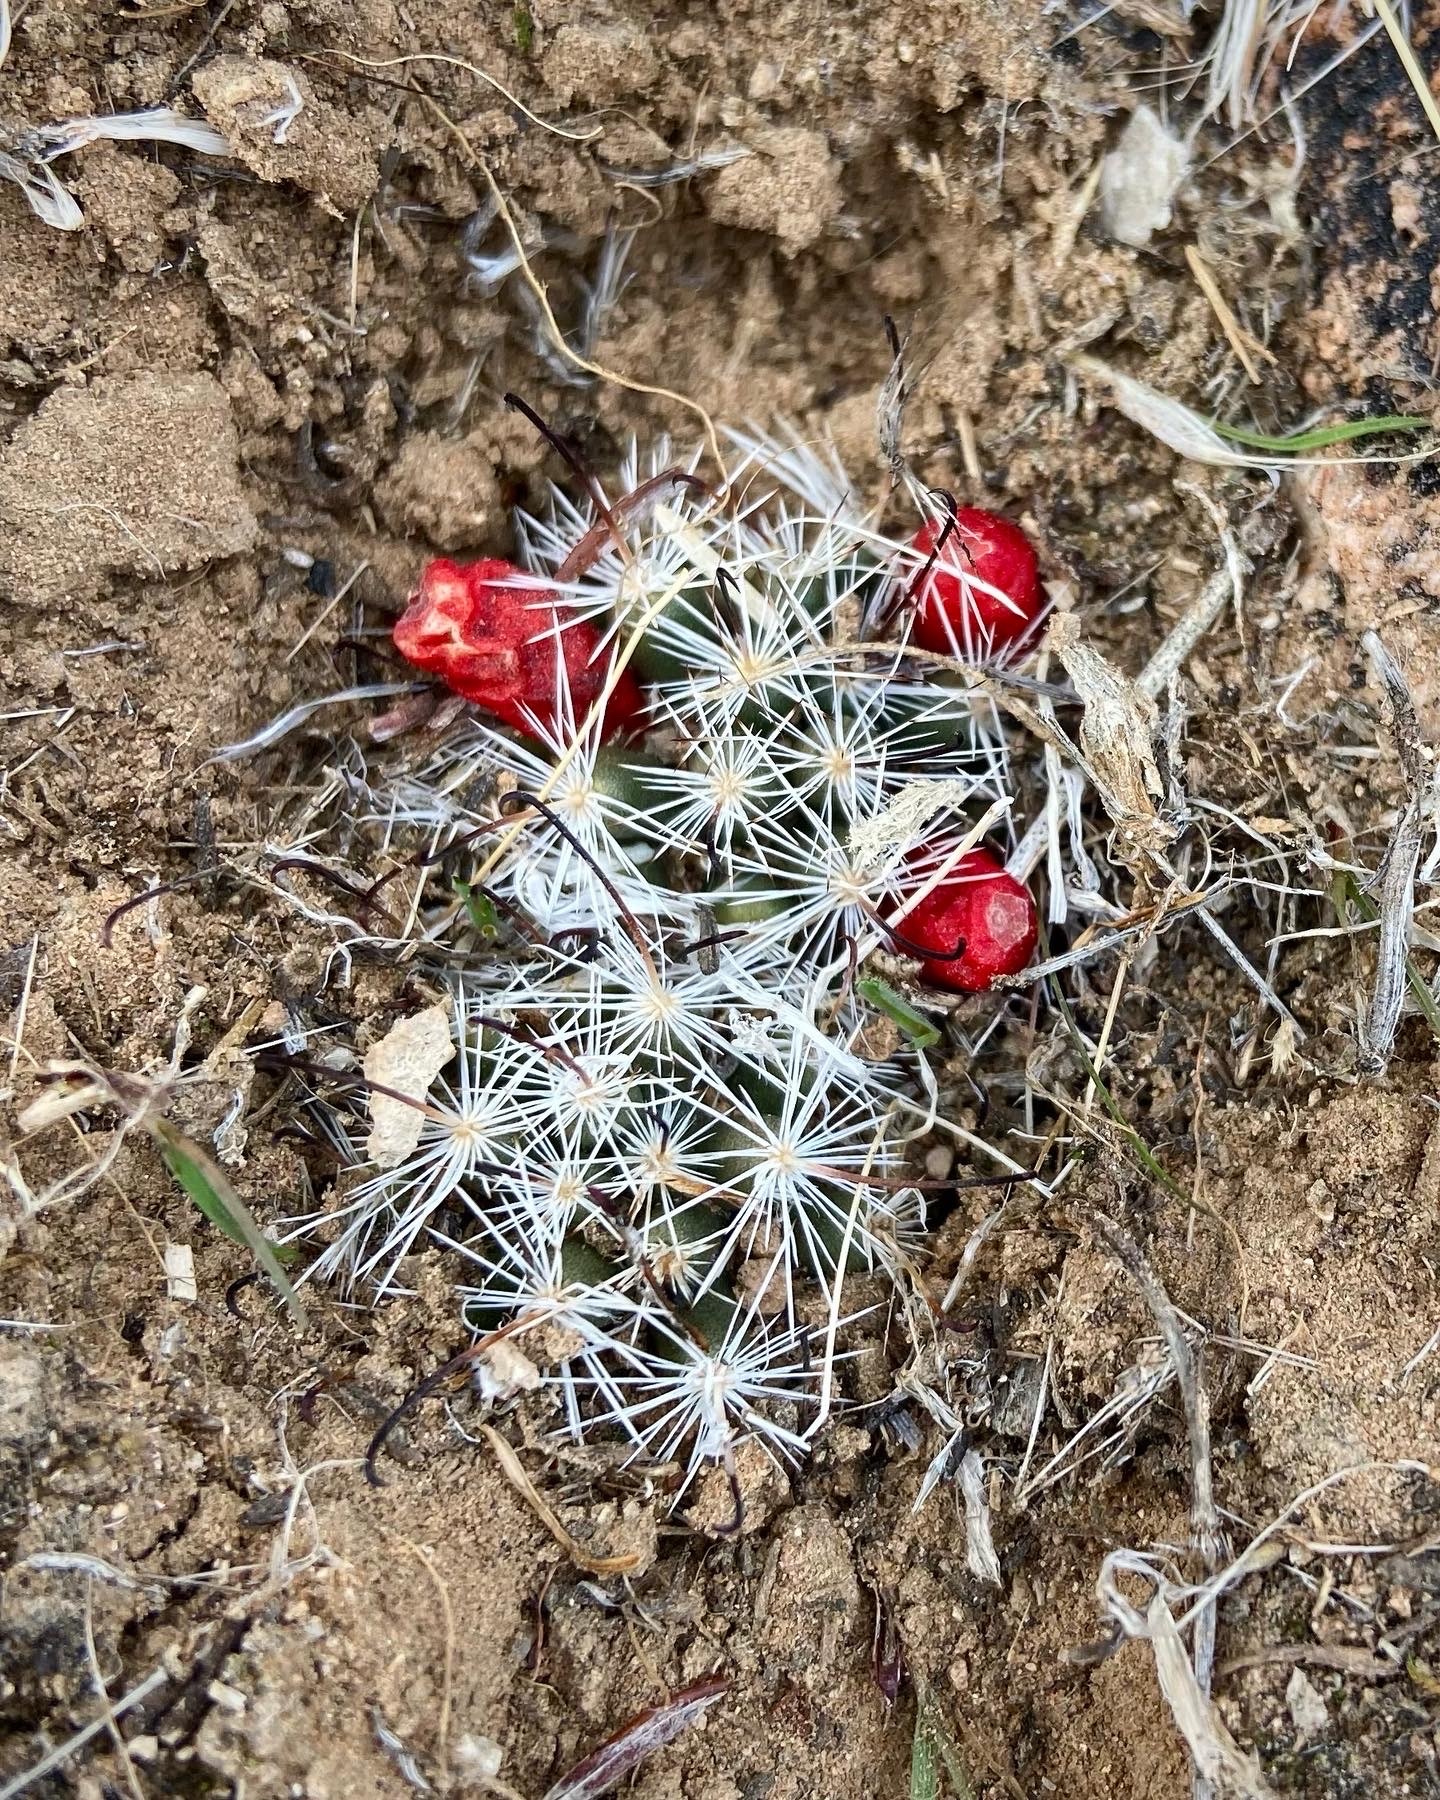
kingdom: Plantae
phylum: Tracheophyta
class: Magnoliopsida
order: Caryophyllales
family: Cactaceae
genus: Cochemiea
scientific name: Cochemiea tetrancistra
